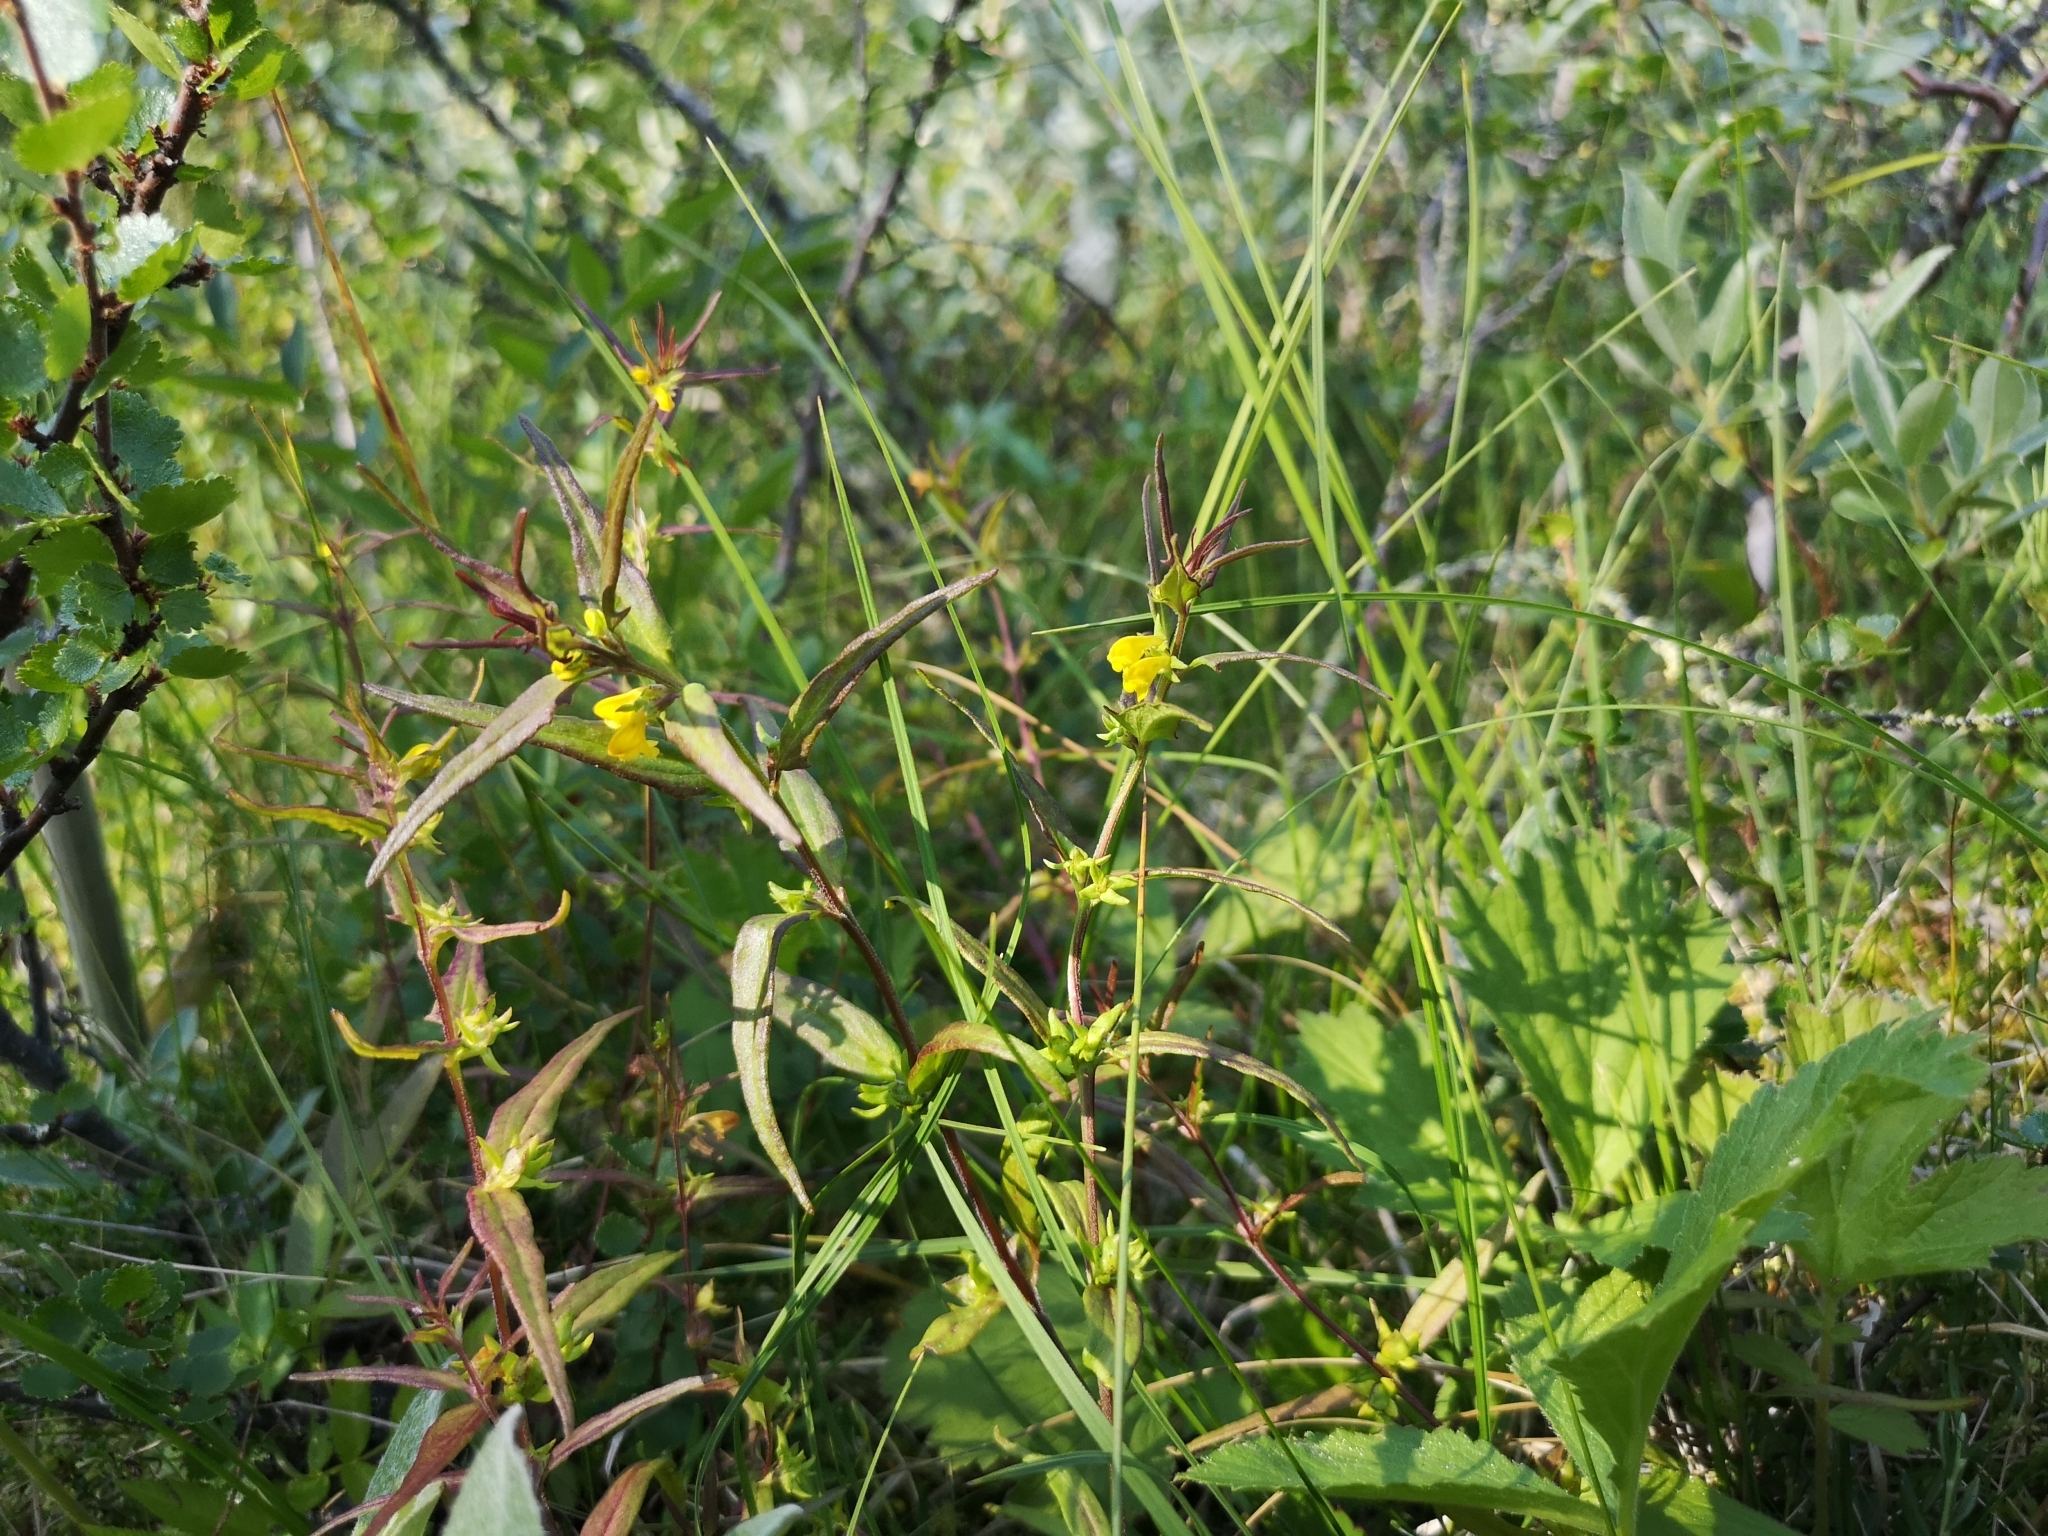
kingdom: Plantae
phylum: Tracheophyta
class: Magnoliopsida
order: Lamiales
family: Orobanchaceae
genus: Melampyrum
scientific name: Melampyrum sylvaticum
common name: Small cow-wheat
